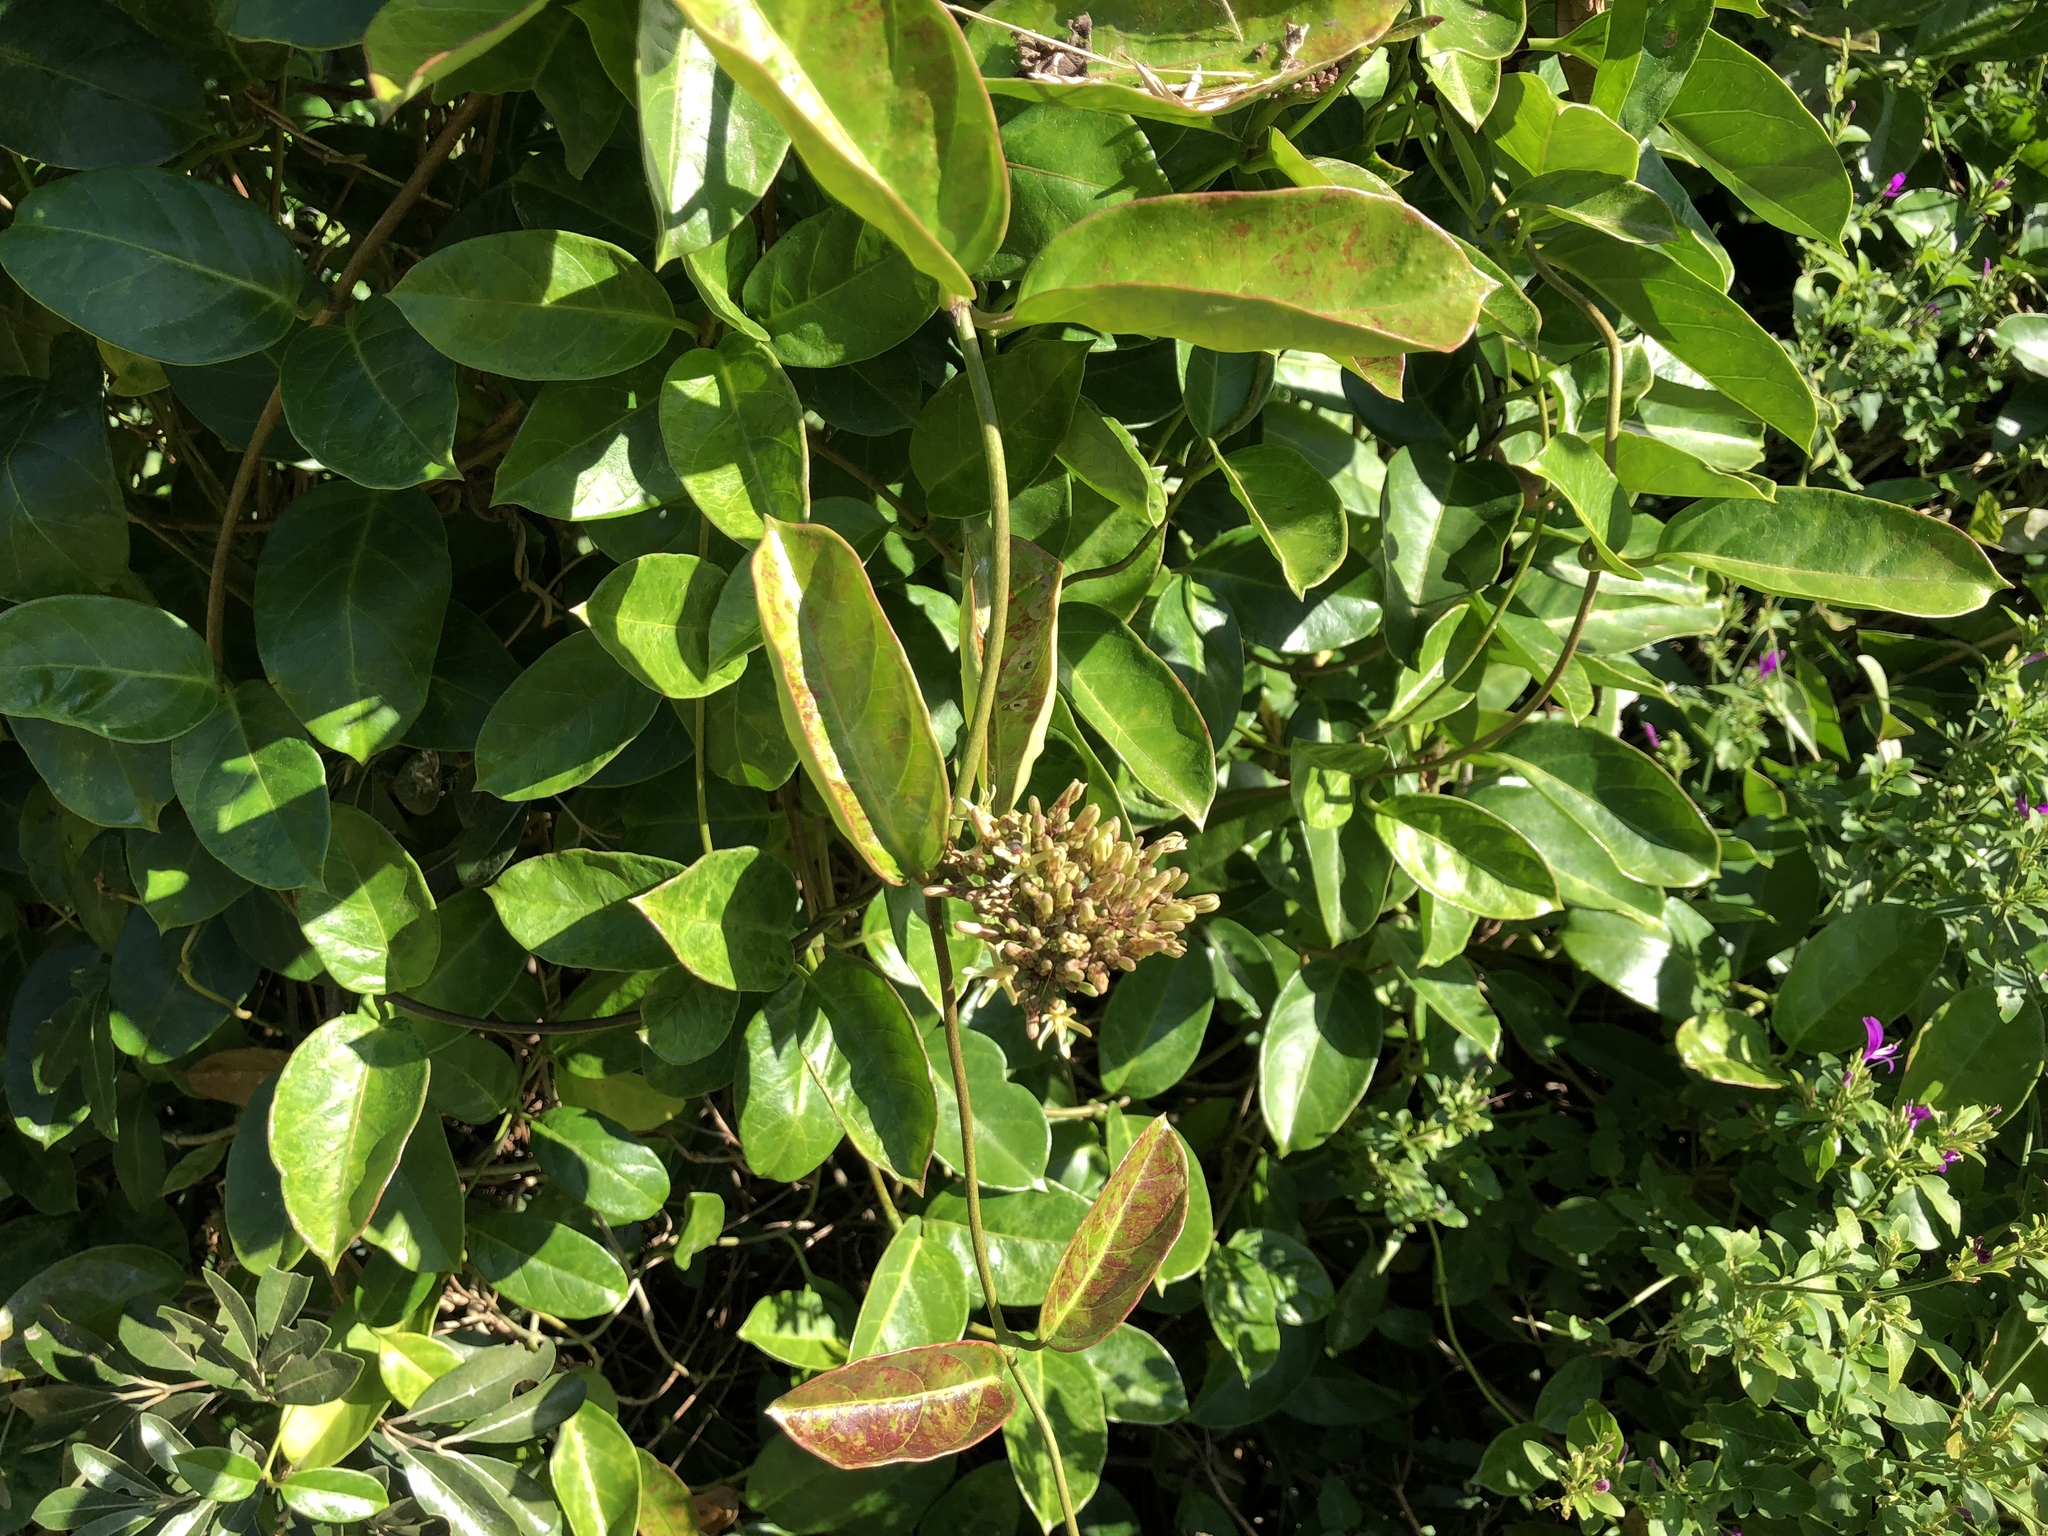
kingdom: Plantae
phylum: Tracheophyta
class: Magnoliopsida
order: Gentianales
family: Apocynaceae
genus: Parsonsia
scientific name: Parsonsia alboflavescens
